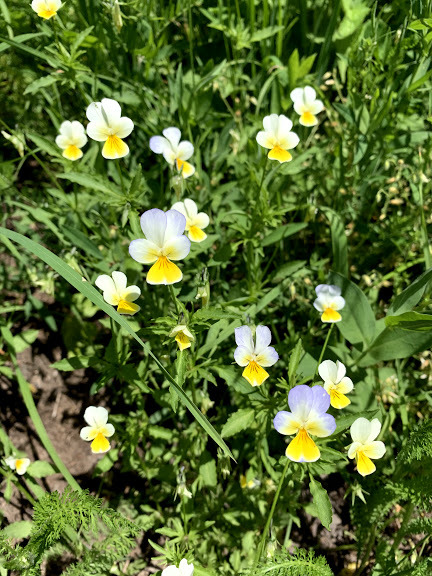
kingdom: Plantae
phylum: Tracheophyta
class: Magnoliopsida
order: Malpighiales
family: Violaceae
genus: Viola
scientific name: Viola tricolor
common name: Pansy
